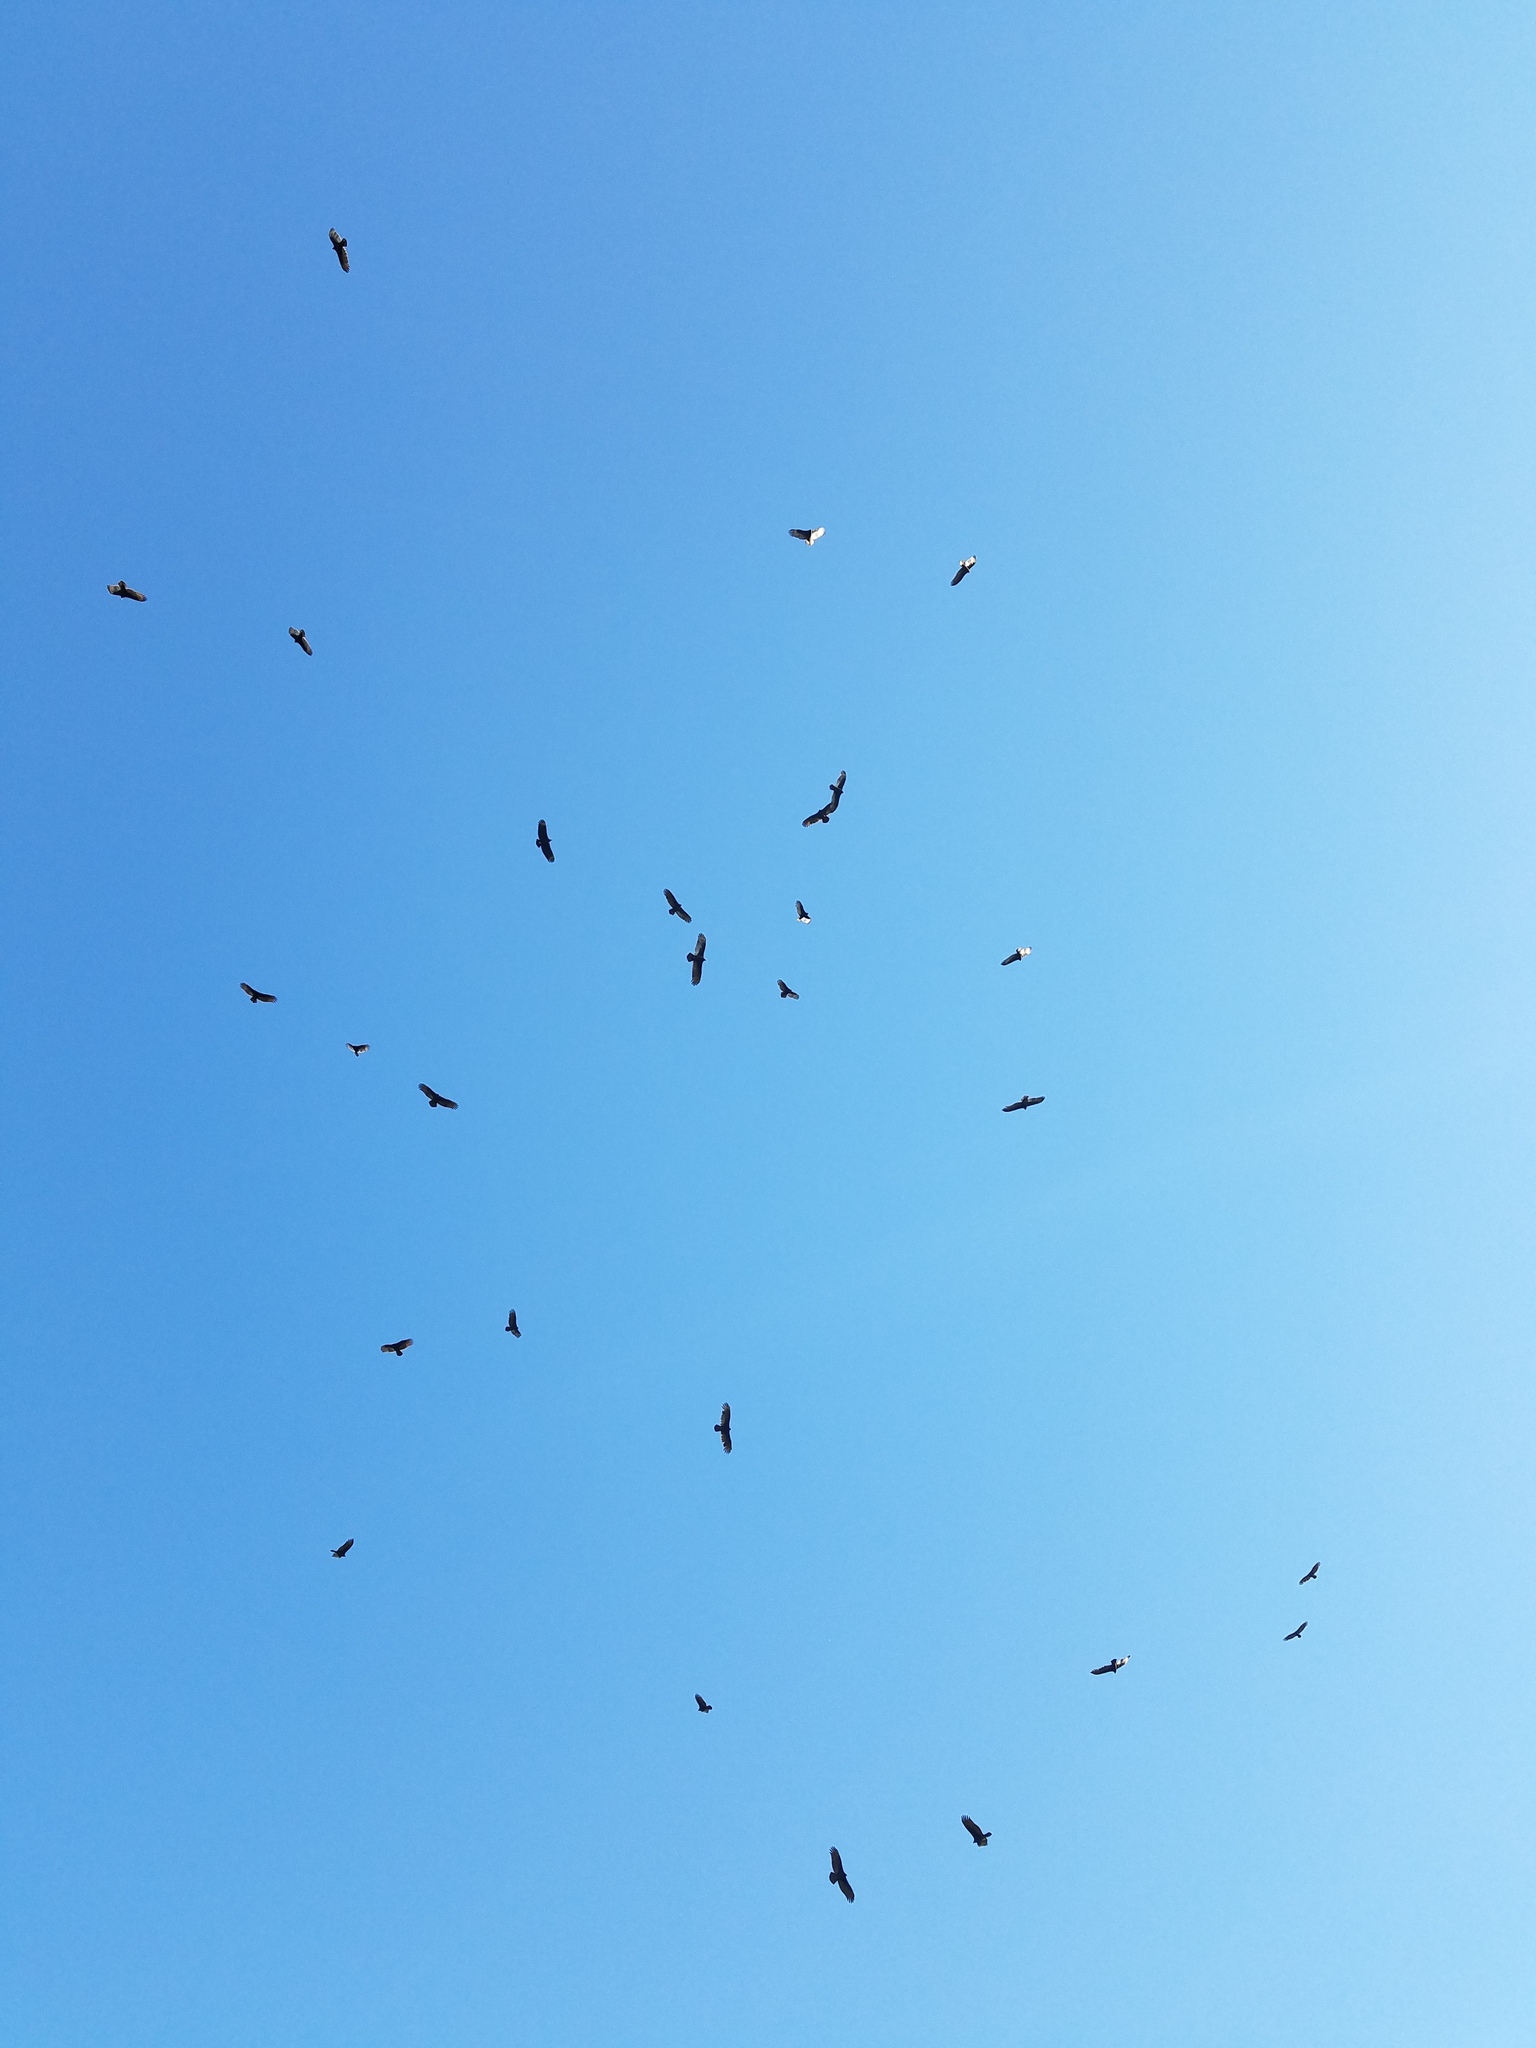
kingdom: Animalia
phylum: Chordata
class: Aves
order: Accipitriformes
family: Cathartidae
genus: Cathartes
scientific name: Cathartes aura
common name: Turkey vulture
